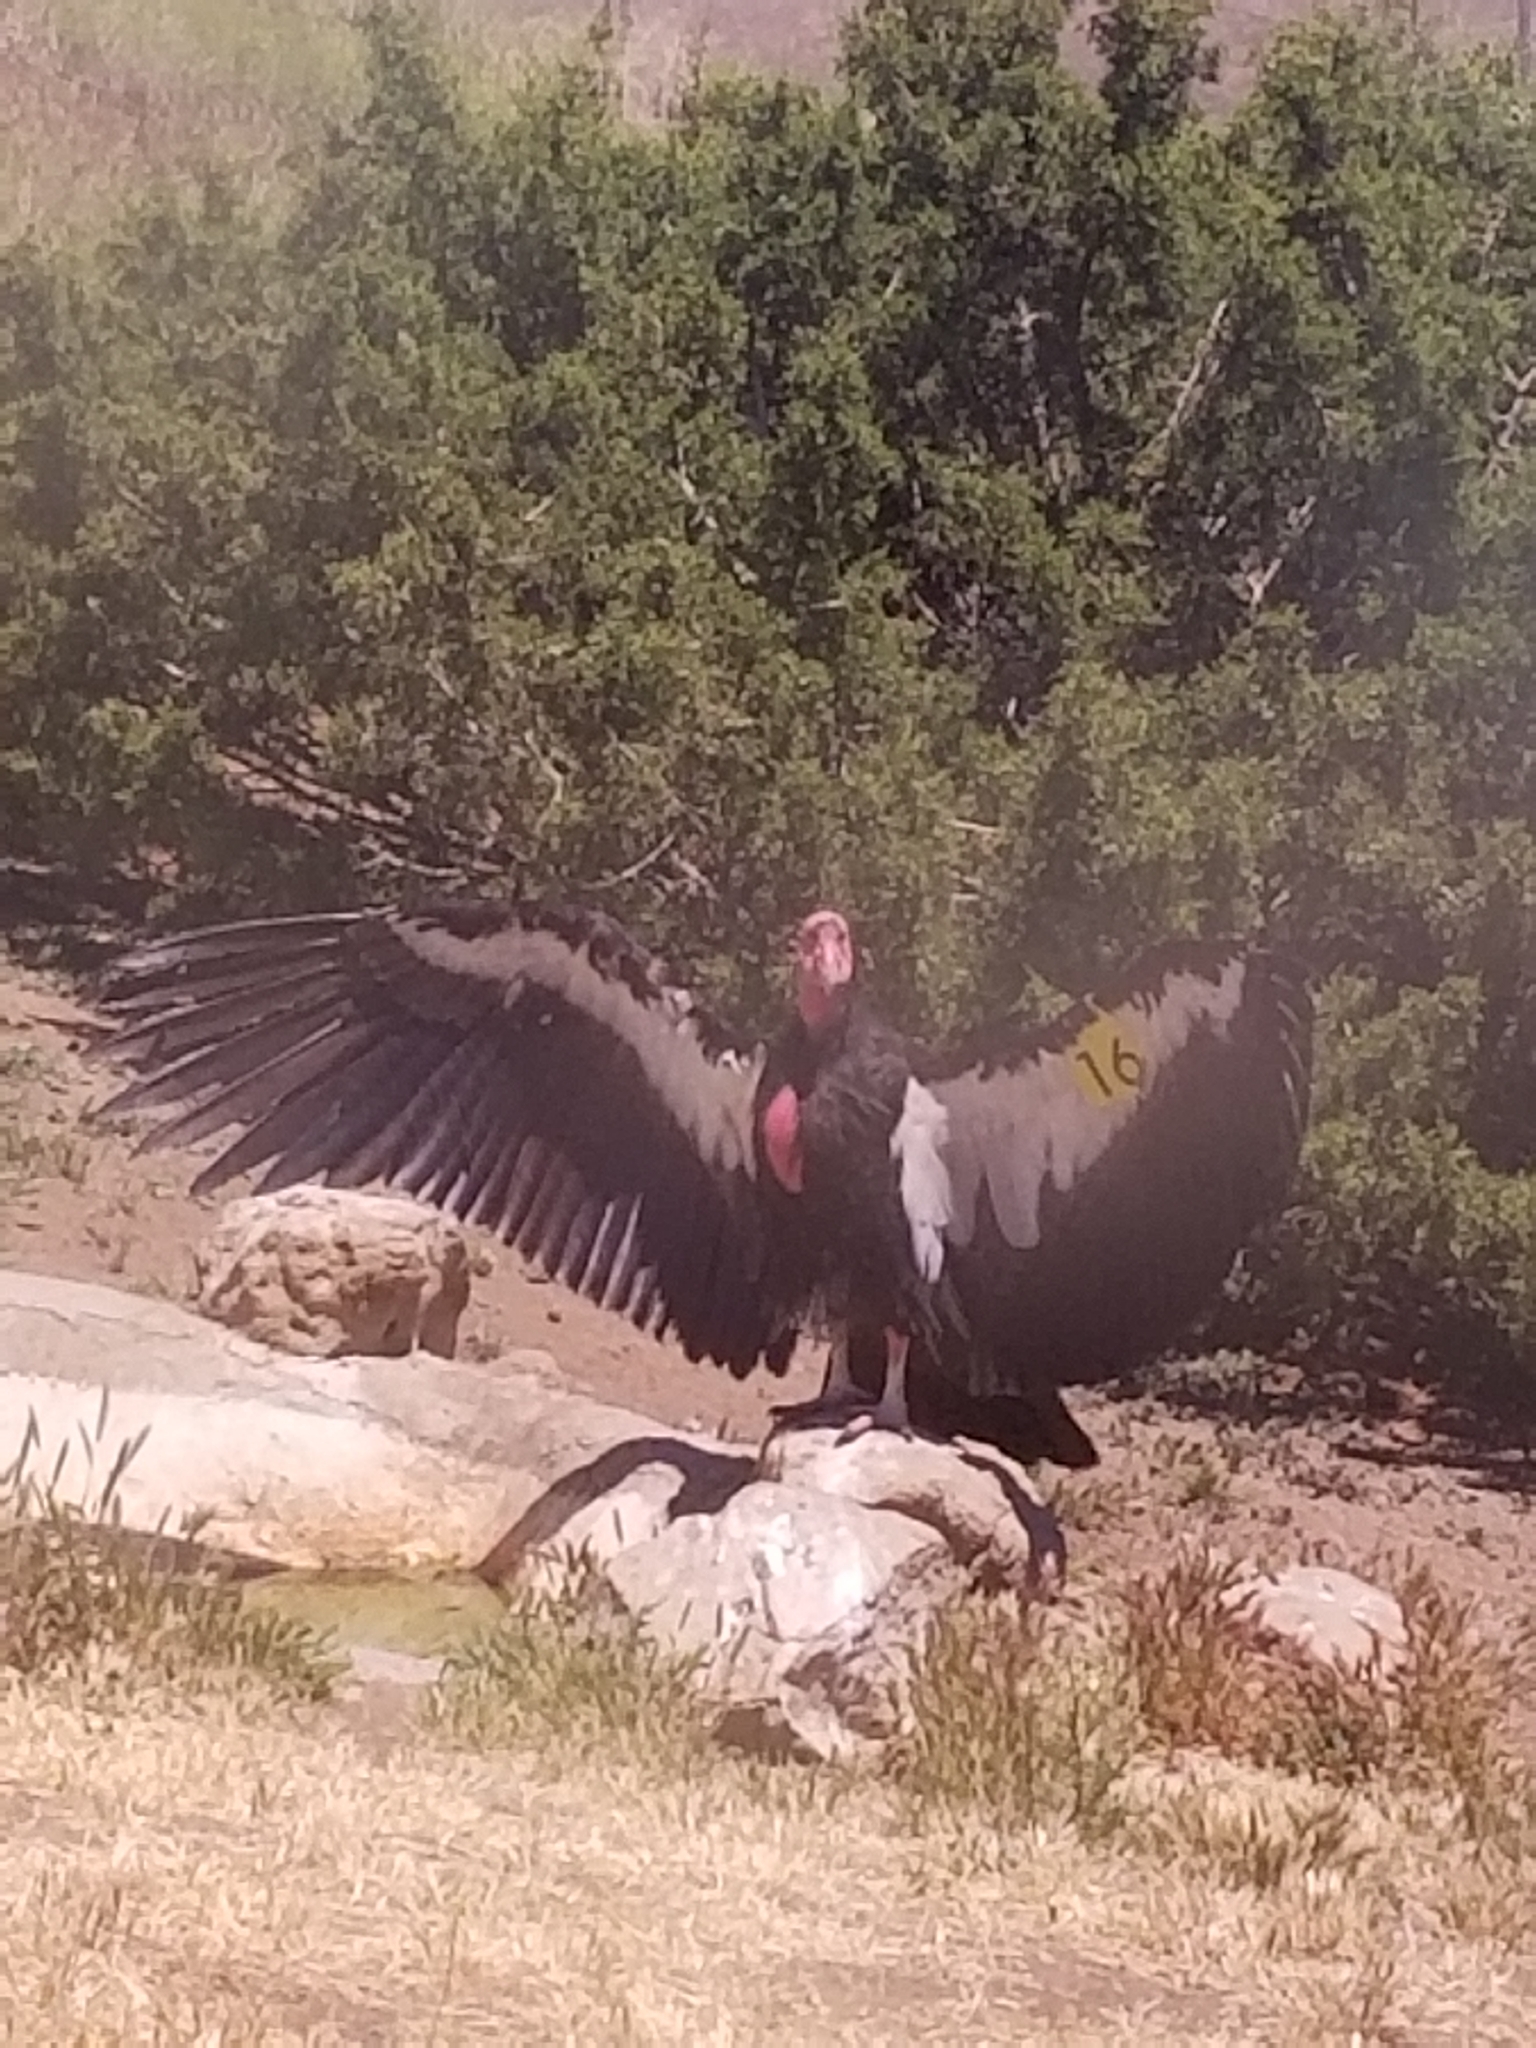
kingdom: Animalia
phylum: Chordata
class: Aves
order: Accipitriformes
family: Cathartidae
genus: Gymnogyps
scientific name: Gymnogyps californianus
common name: California condor
